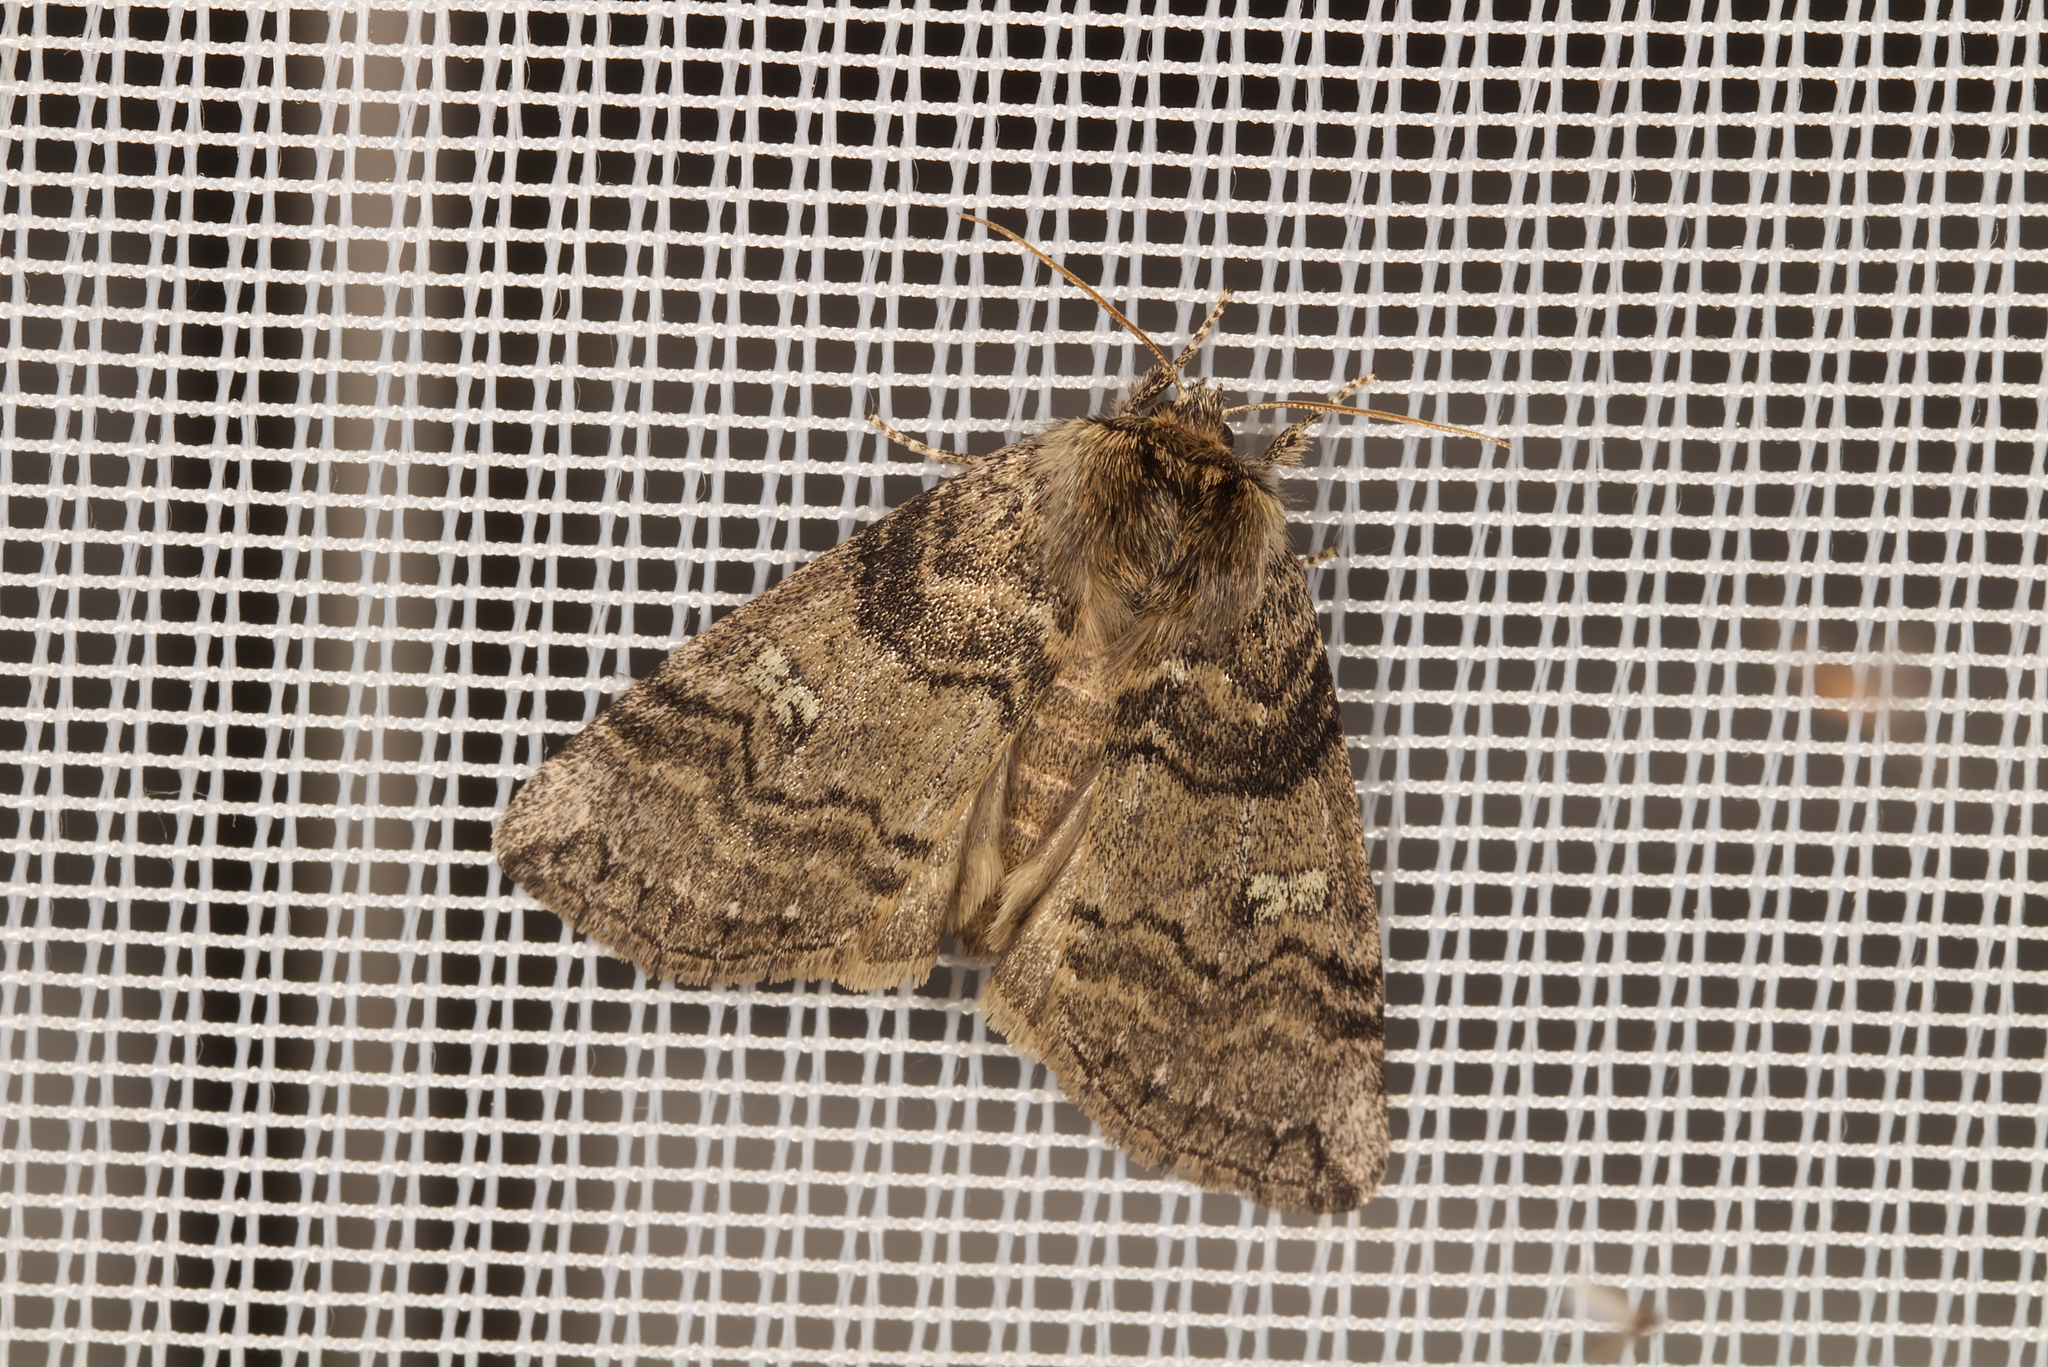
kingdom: Animalia
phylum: Arthropoda
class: Insecta
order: Lepidoptera
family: Drepanidae
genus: Tethea
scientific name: Tethea or
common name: Poplar lutestring
